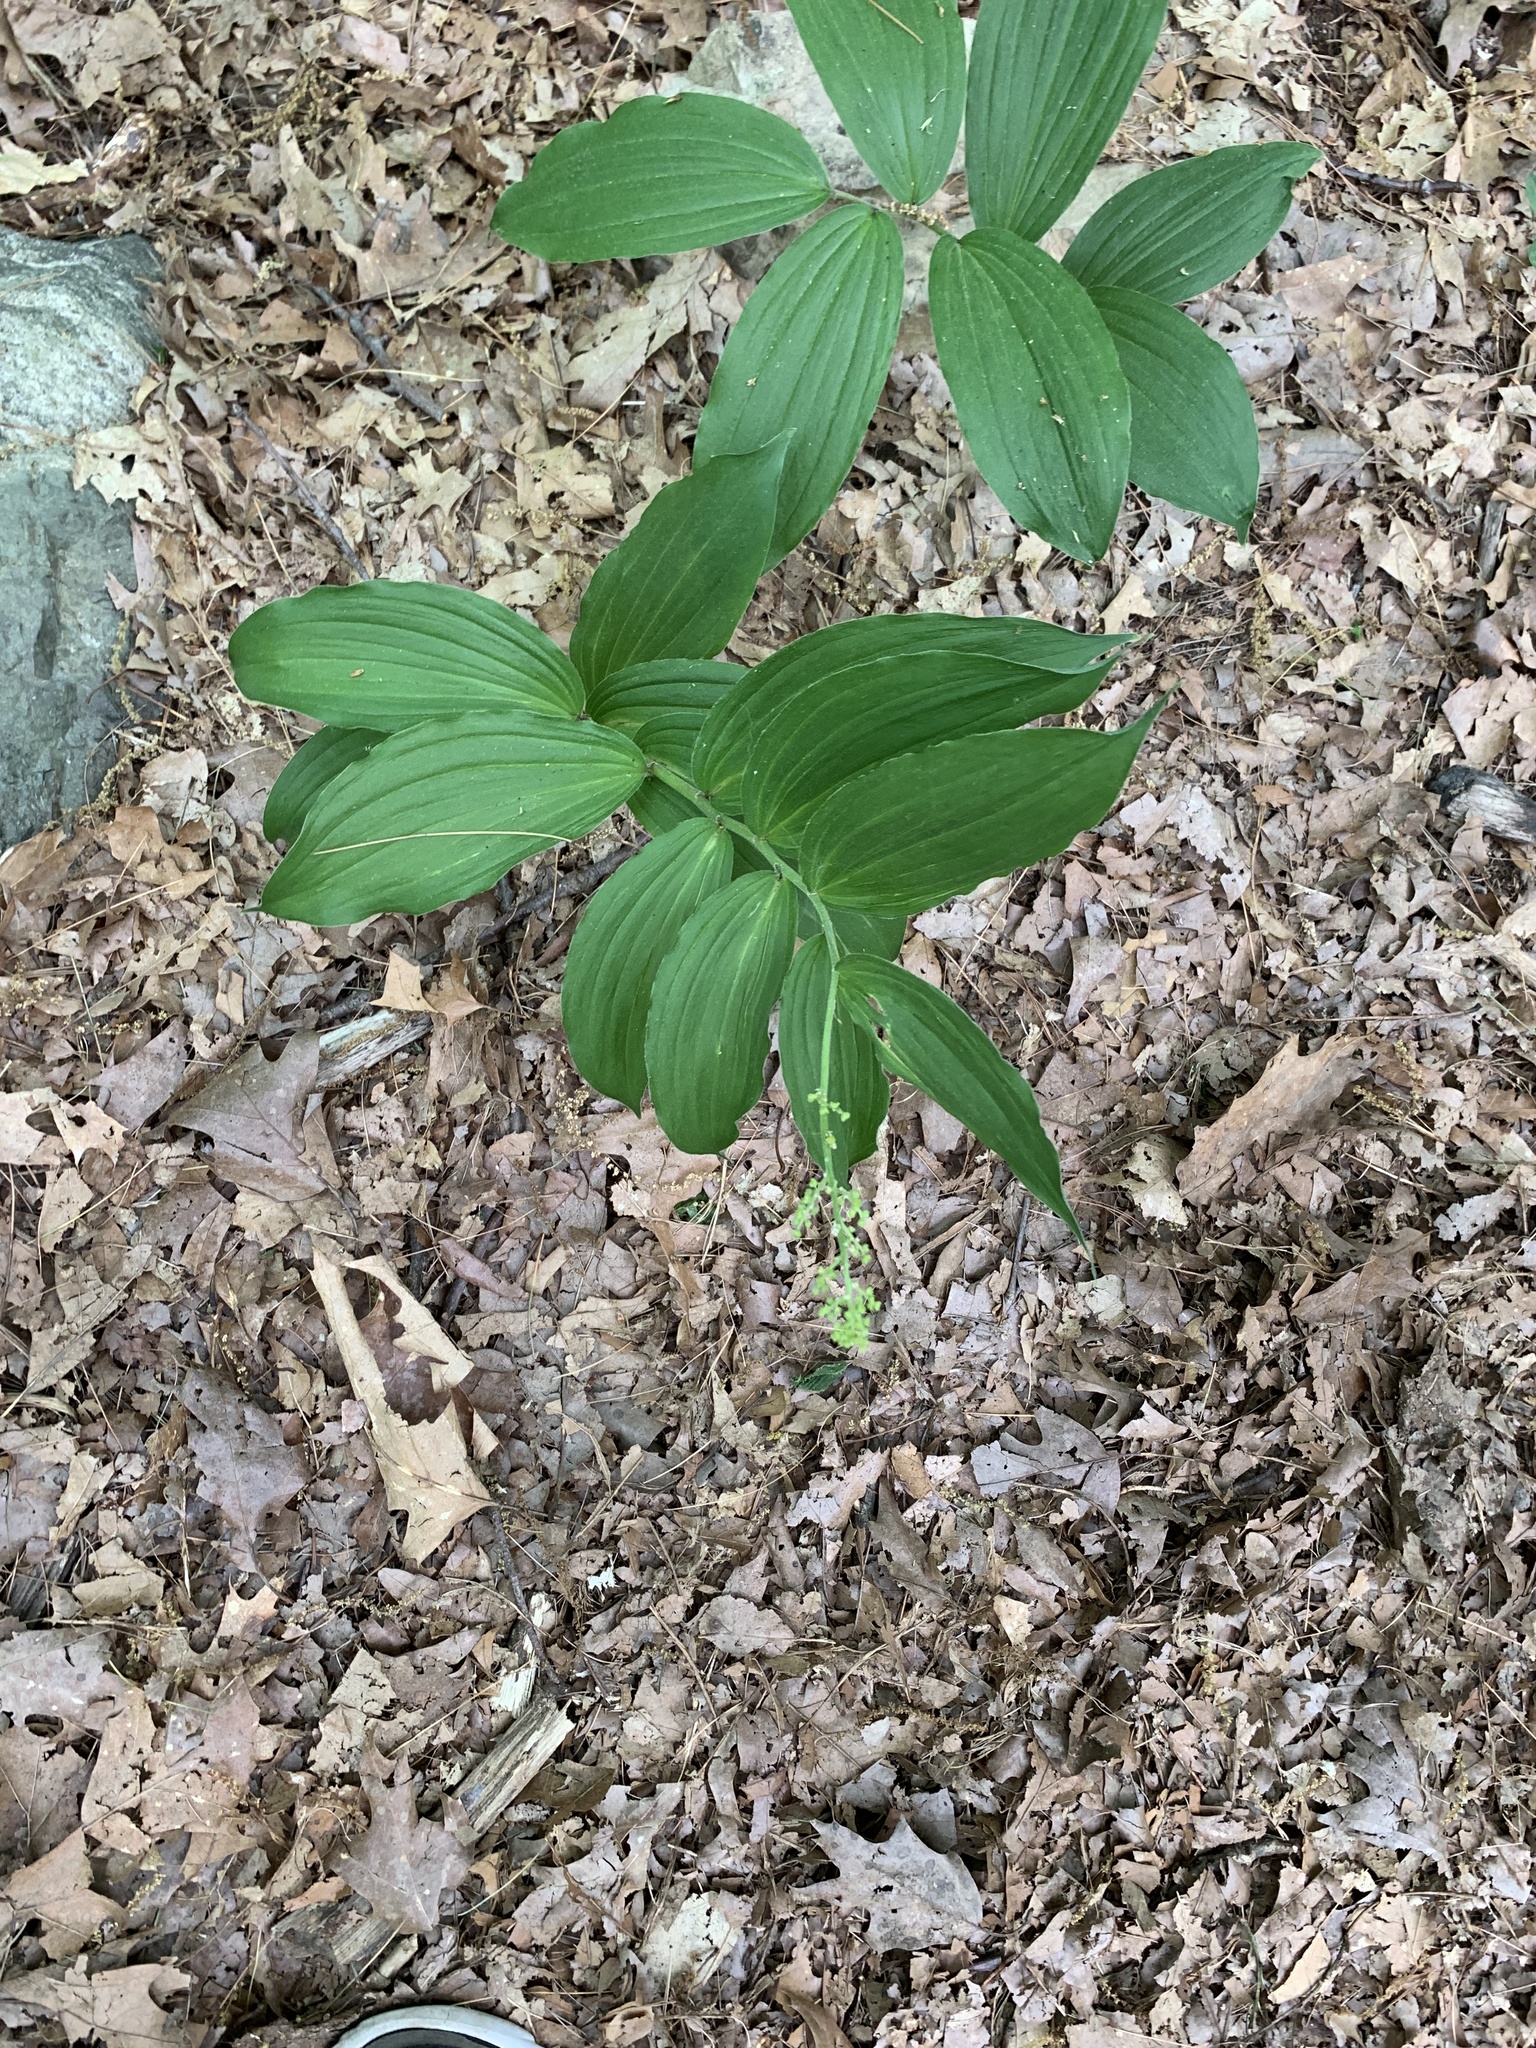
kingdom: Plantae
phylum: Tracheophyta
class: Liliopsida
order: Asparagales
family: Asparagaceae
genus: Maianthemum
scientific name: Maianthemum racemosum
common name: False spikenard
